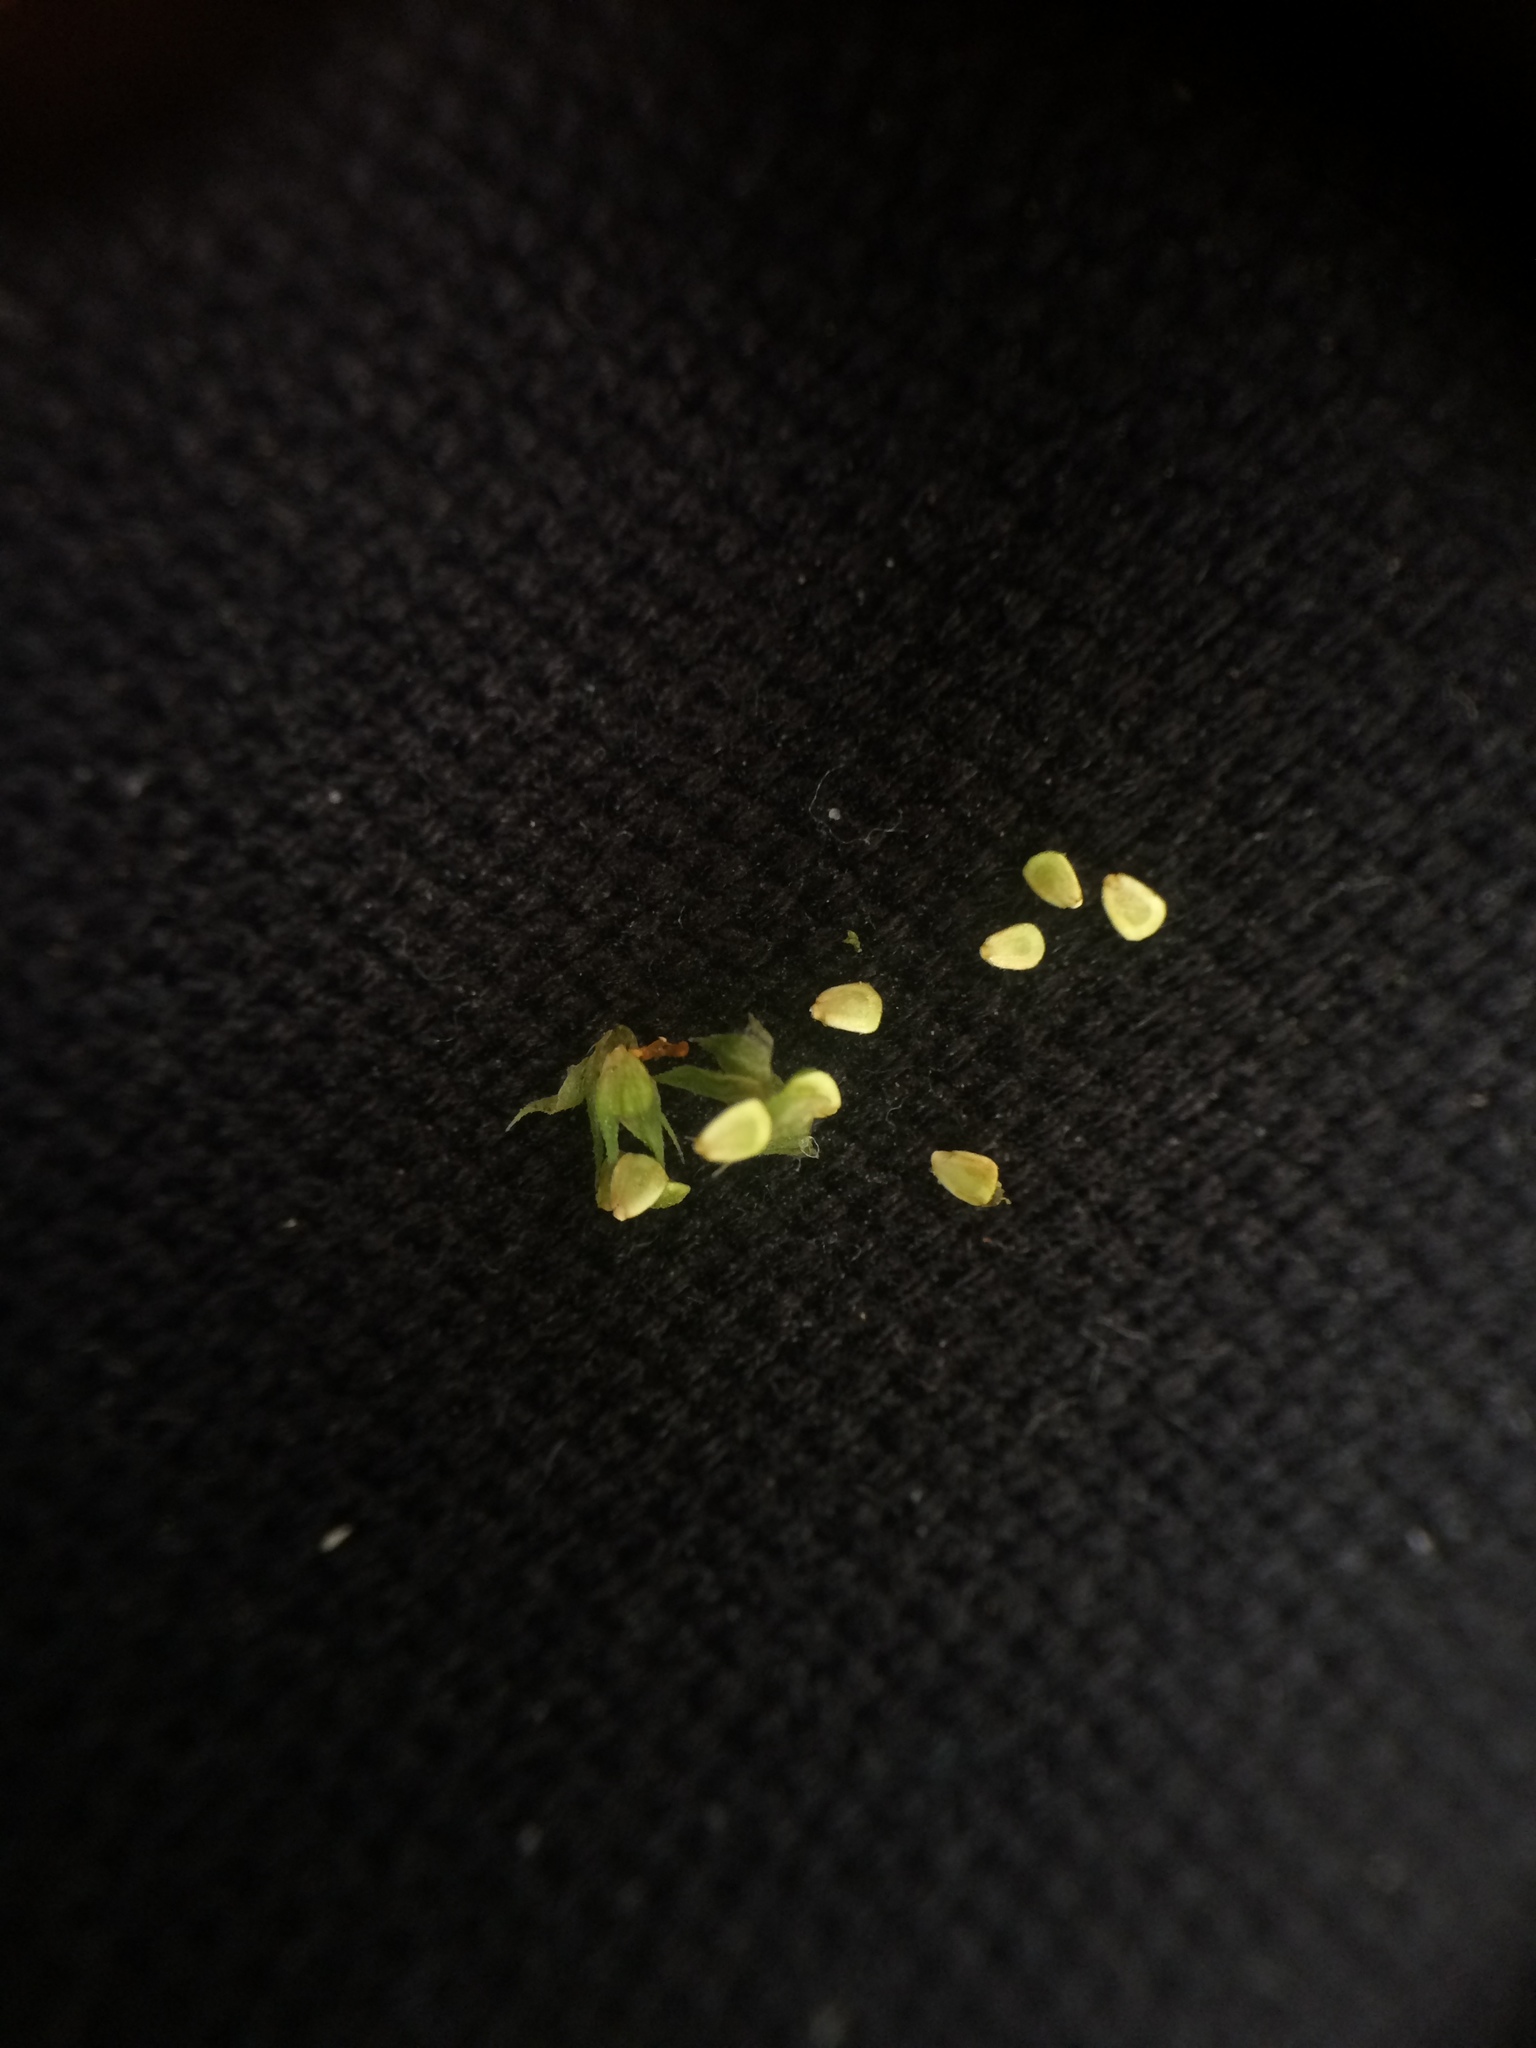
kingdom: Plantae
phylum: Tracheophyta
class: Magnoliopsida
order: Lamiales
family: Lamiaceae
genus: Lycopus
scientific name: Lycopus americanus
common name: American bugleweed
